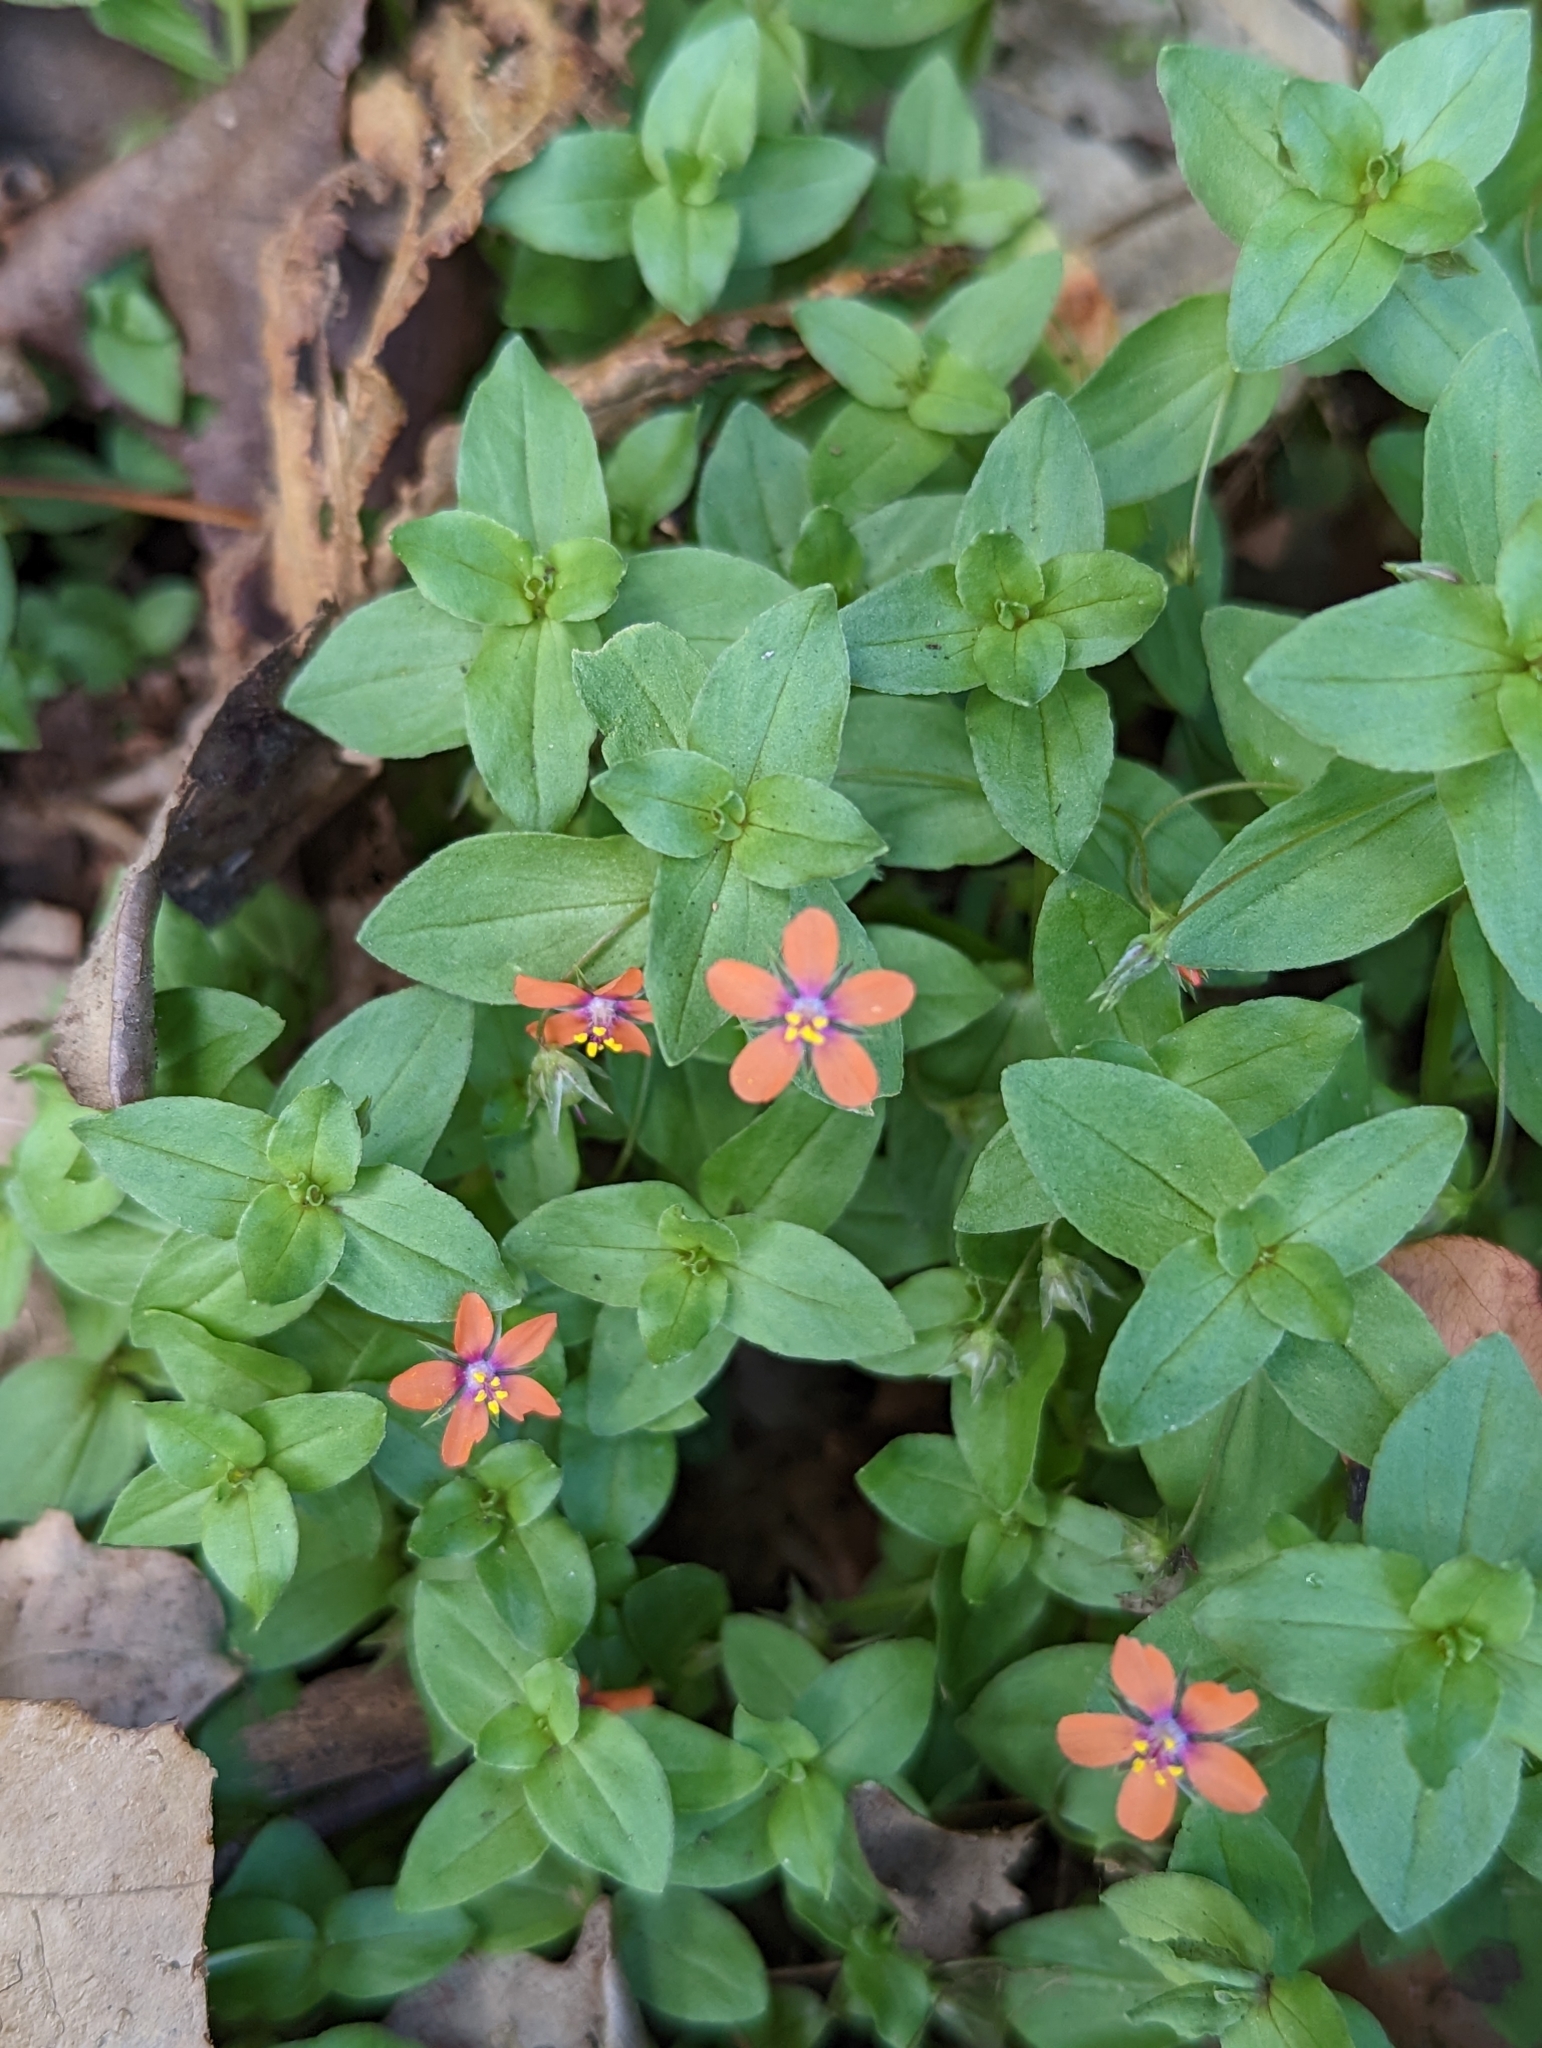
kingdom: Plantae
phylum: Tracheophyta
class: Magnoliopsida
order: Ericales
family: Primulaceae
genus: Lysimachia
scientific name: Lysimachia arvensis
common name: Scarlet pimpernel
